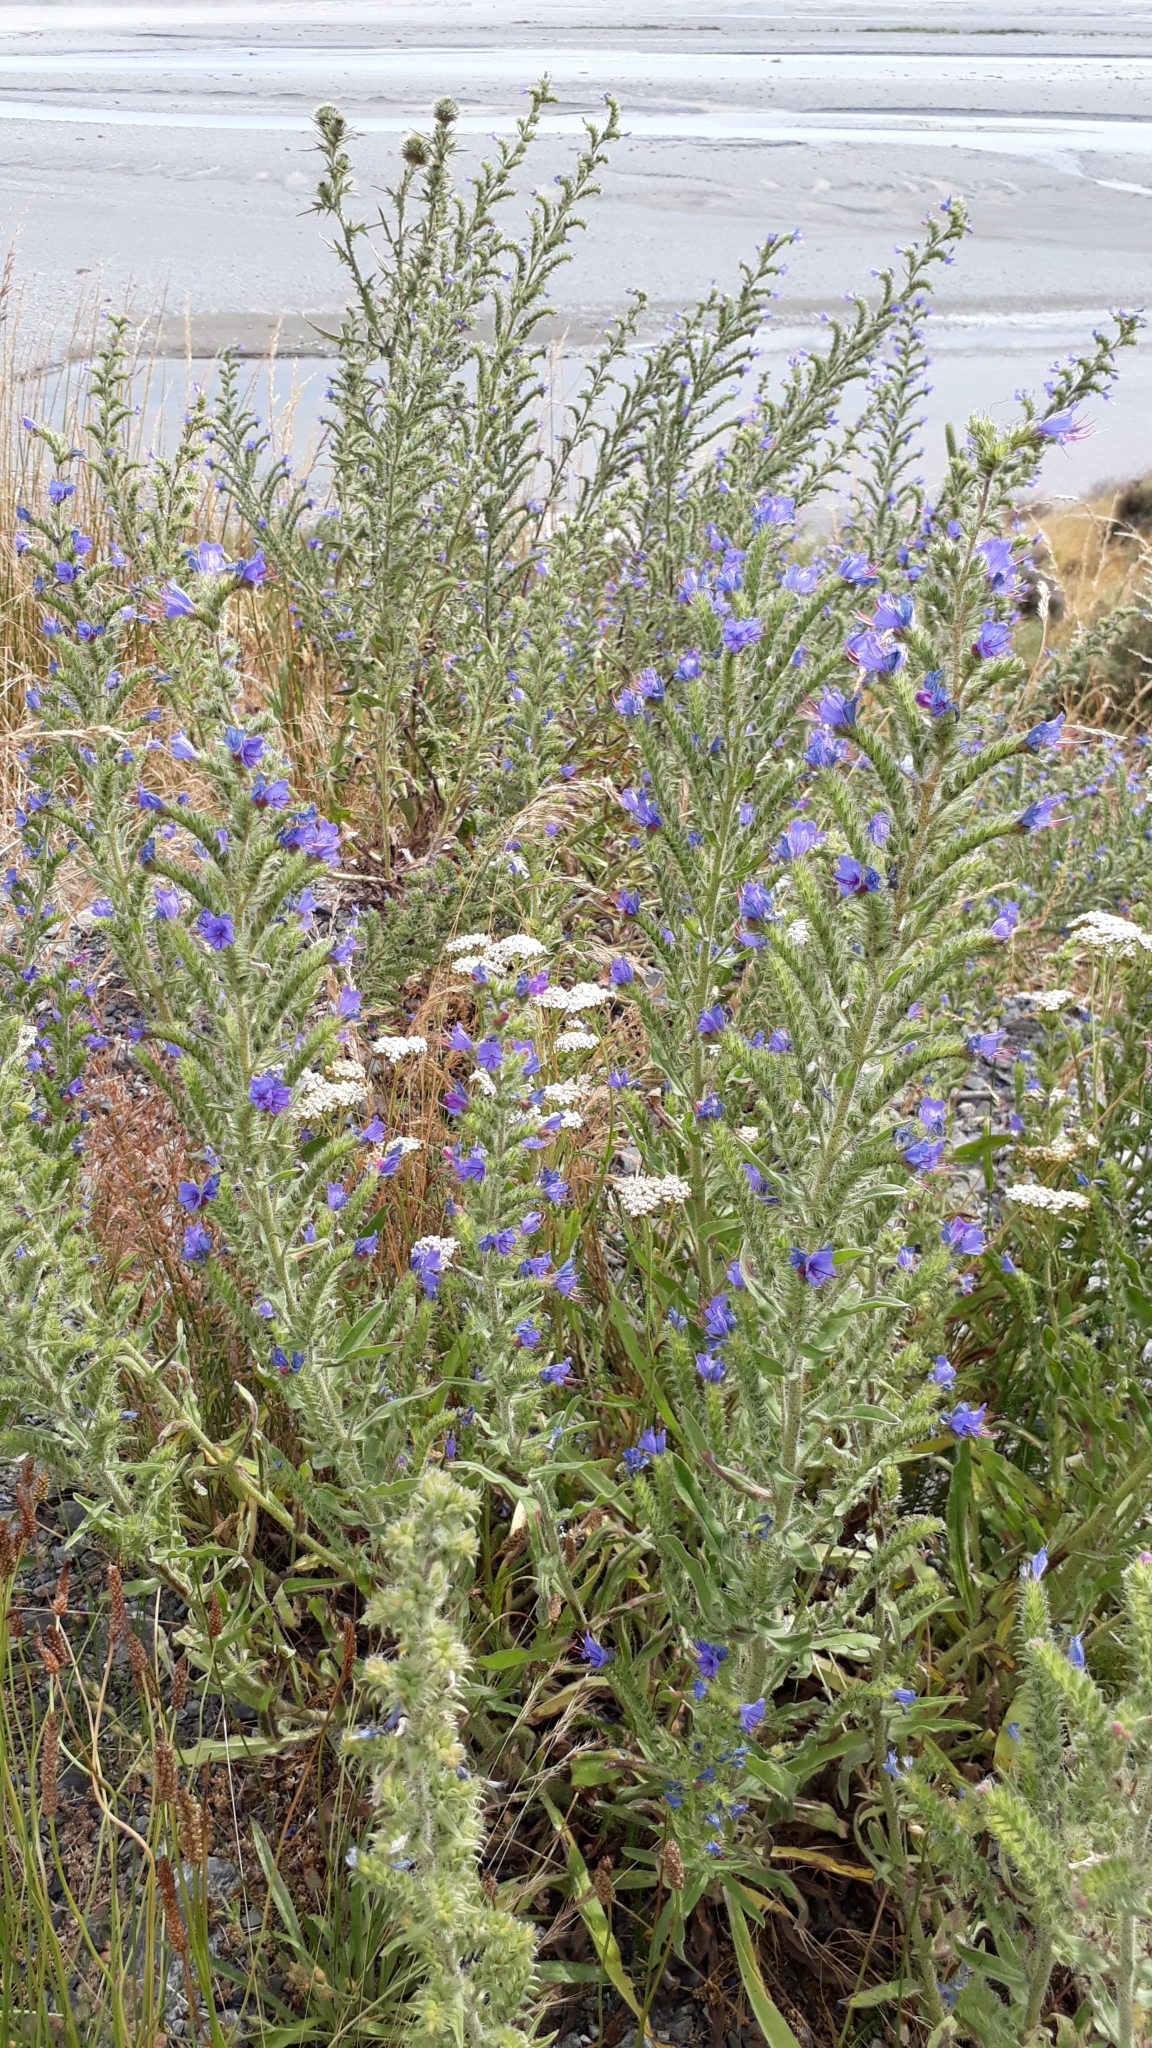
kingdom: Plantae
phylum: Tracheophyta
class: Magnoliopsida
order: Boraginales
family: Boraginaceae
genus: Echium
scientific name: Echium vulgare
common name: Common viper's bugloss
